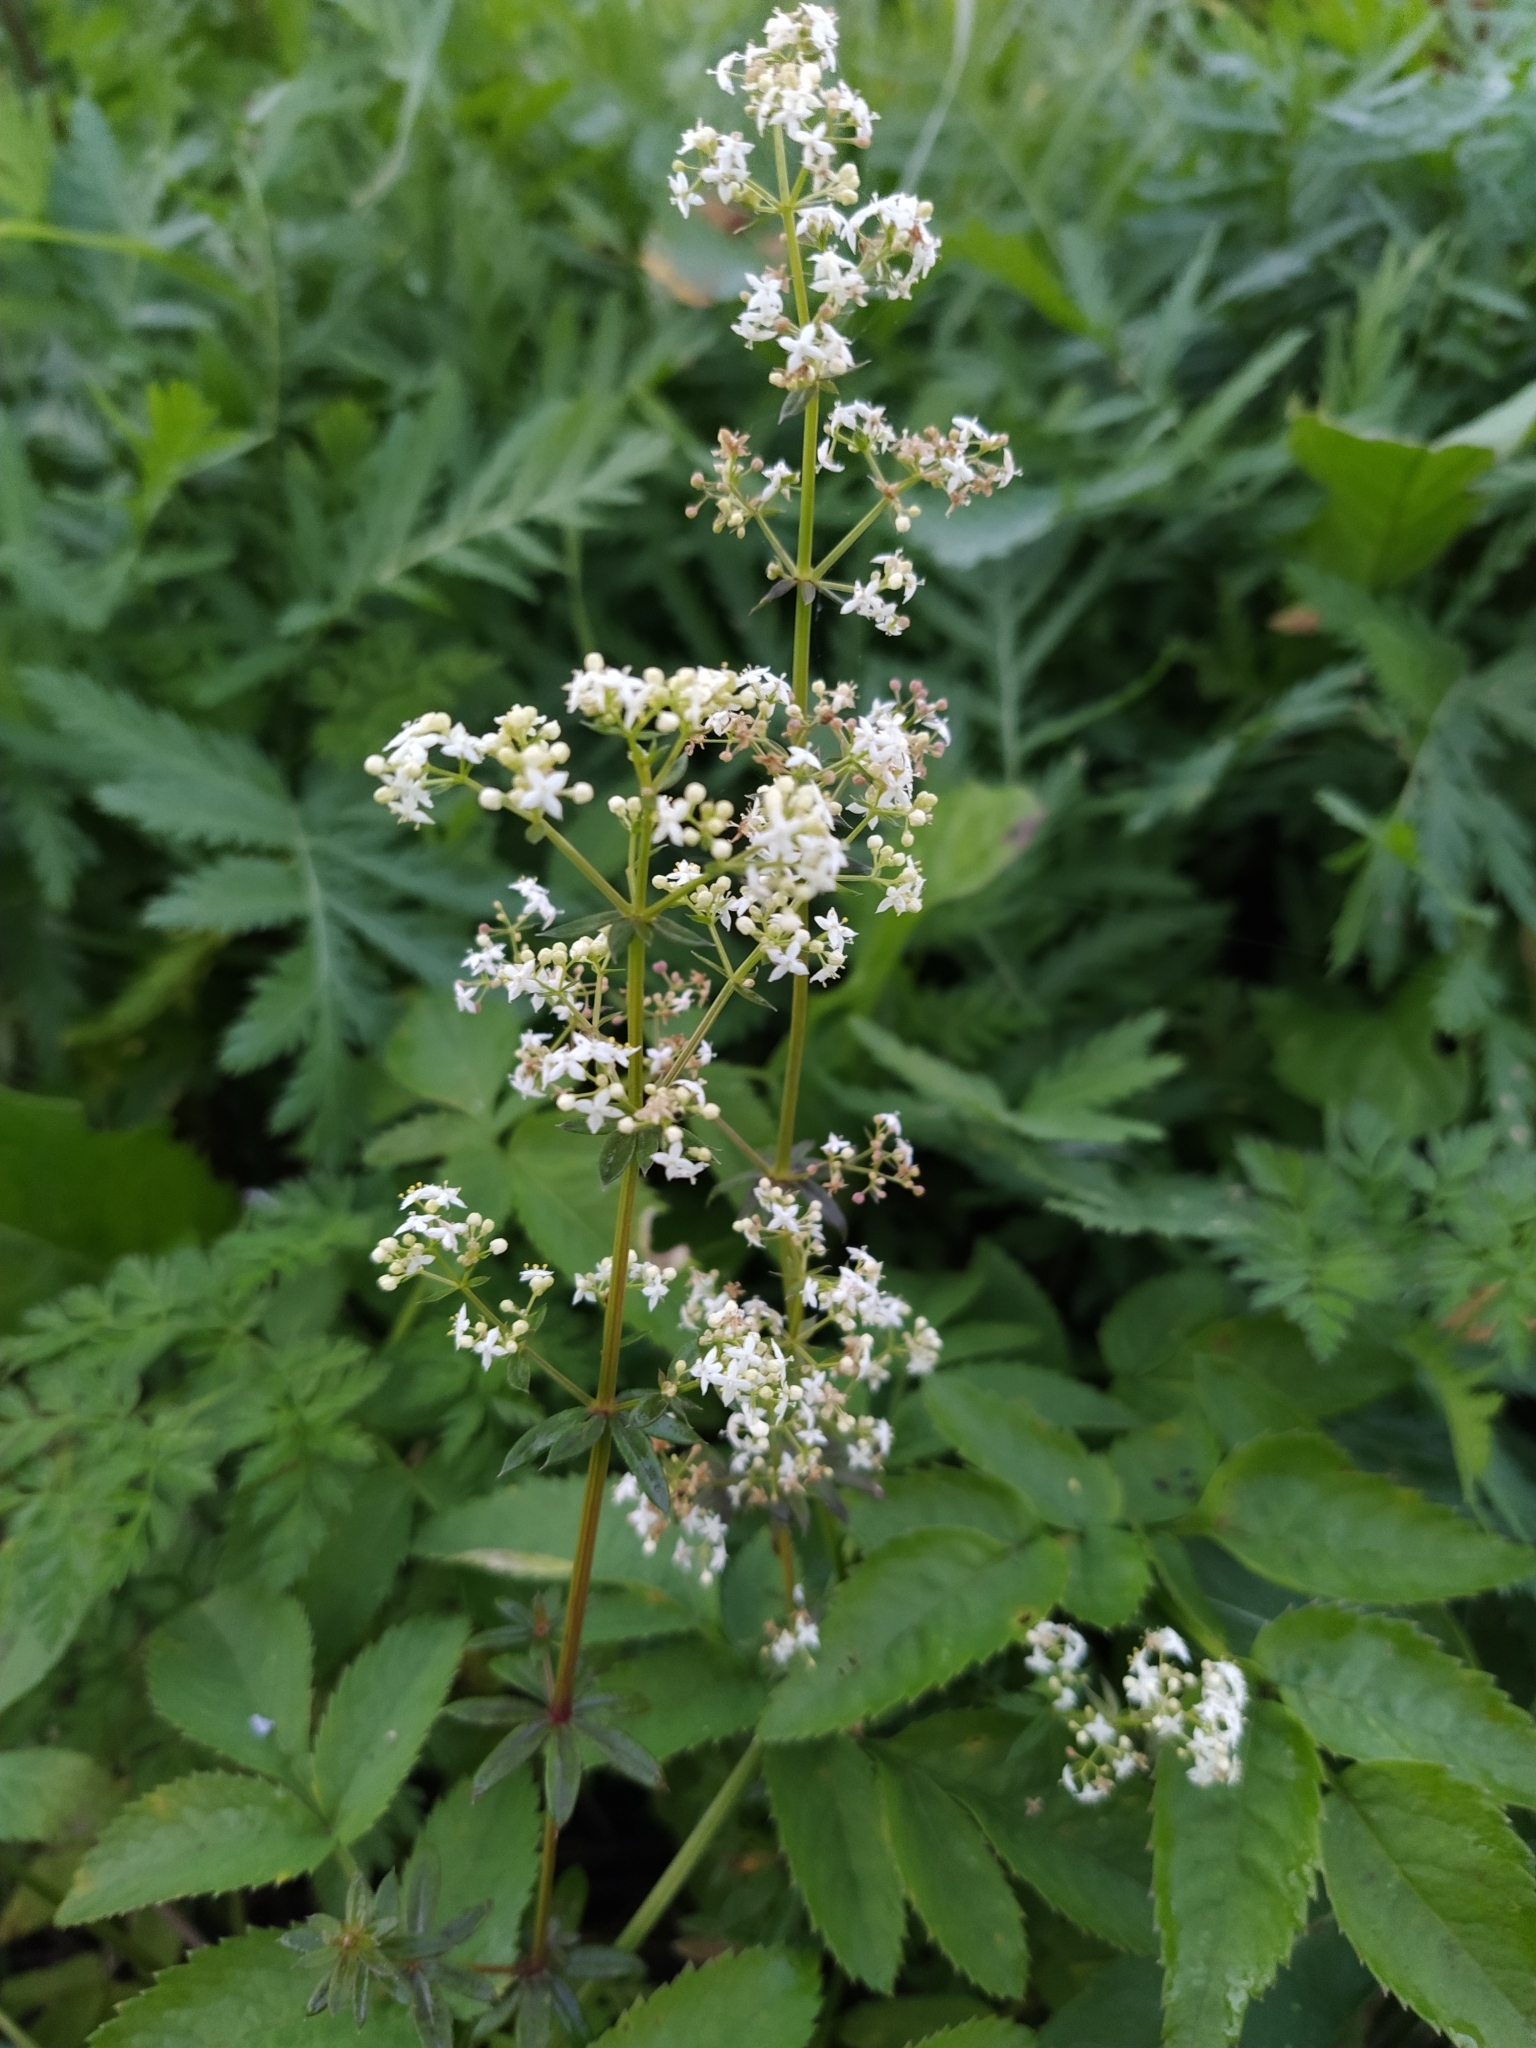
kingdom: Plantae
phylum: Tracheophyta
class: Magnoliopsida
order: Gentianales
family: Rubiaceae
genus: Galium
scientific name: Galium mollugo
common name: Hedge bedstraw
